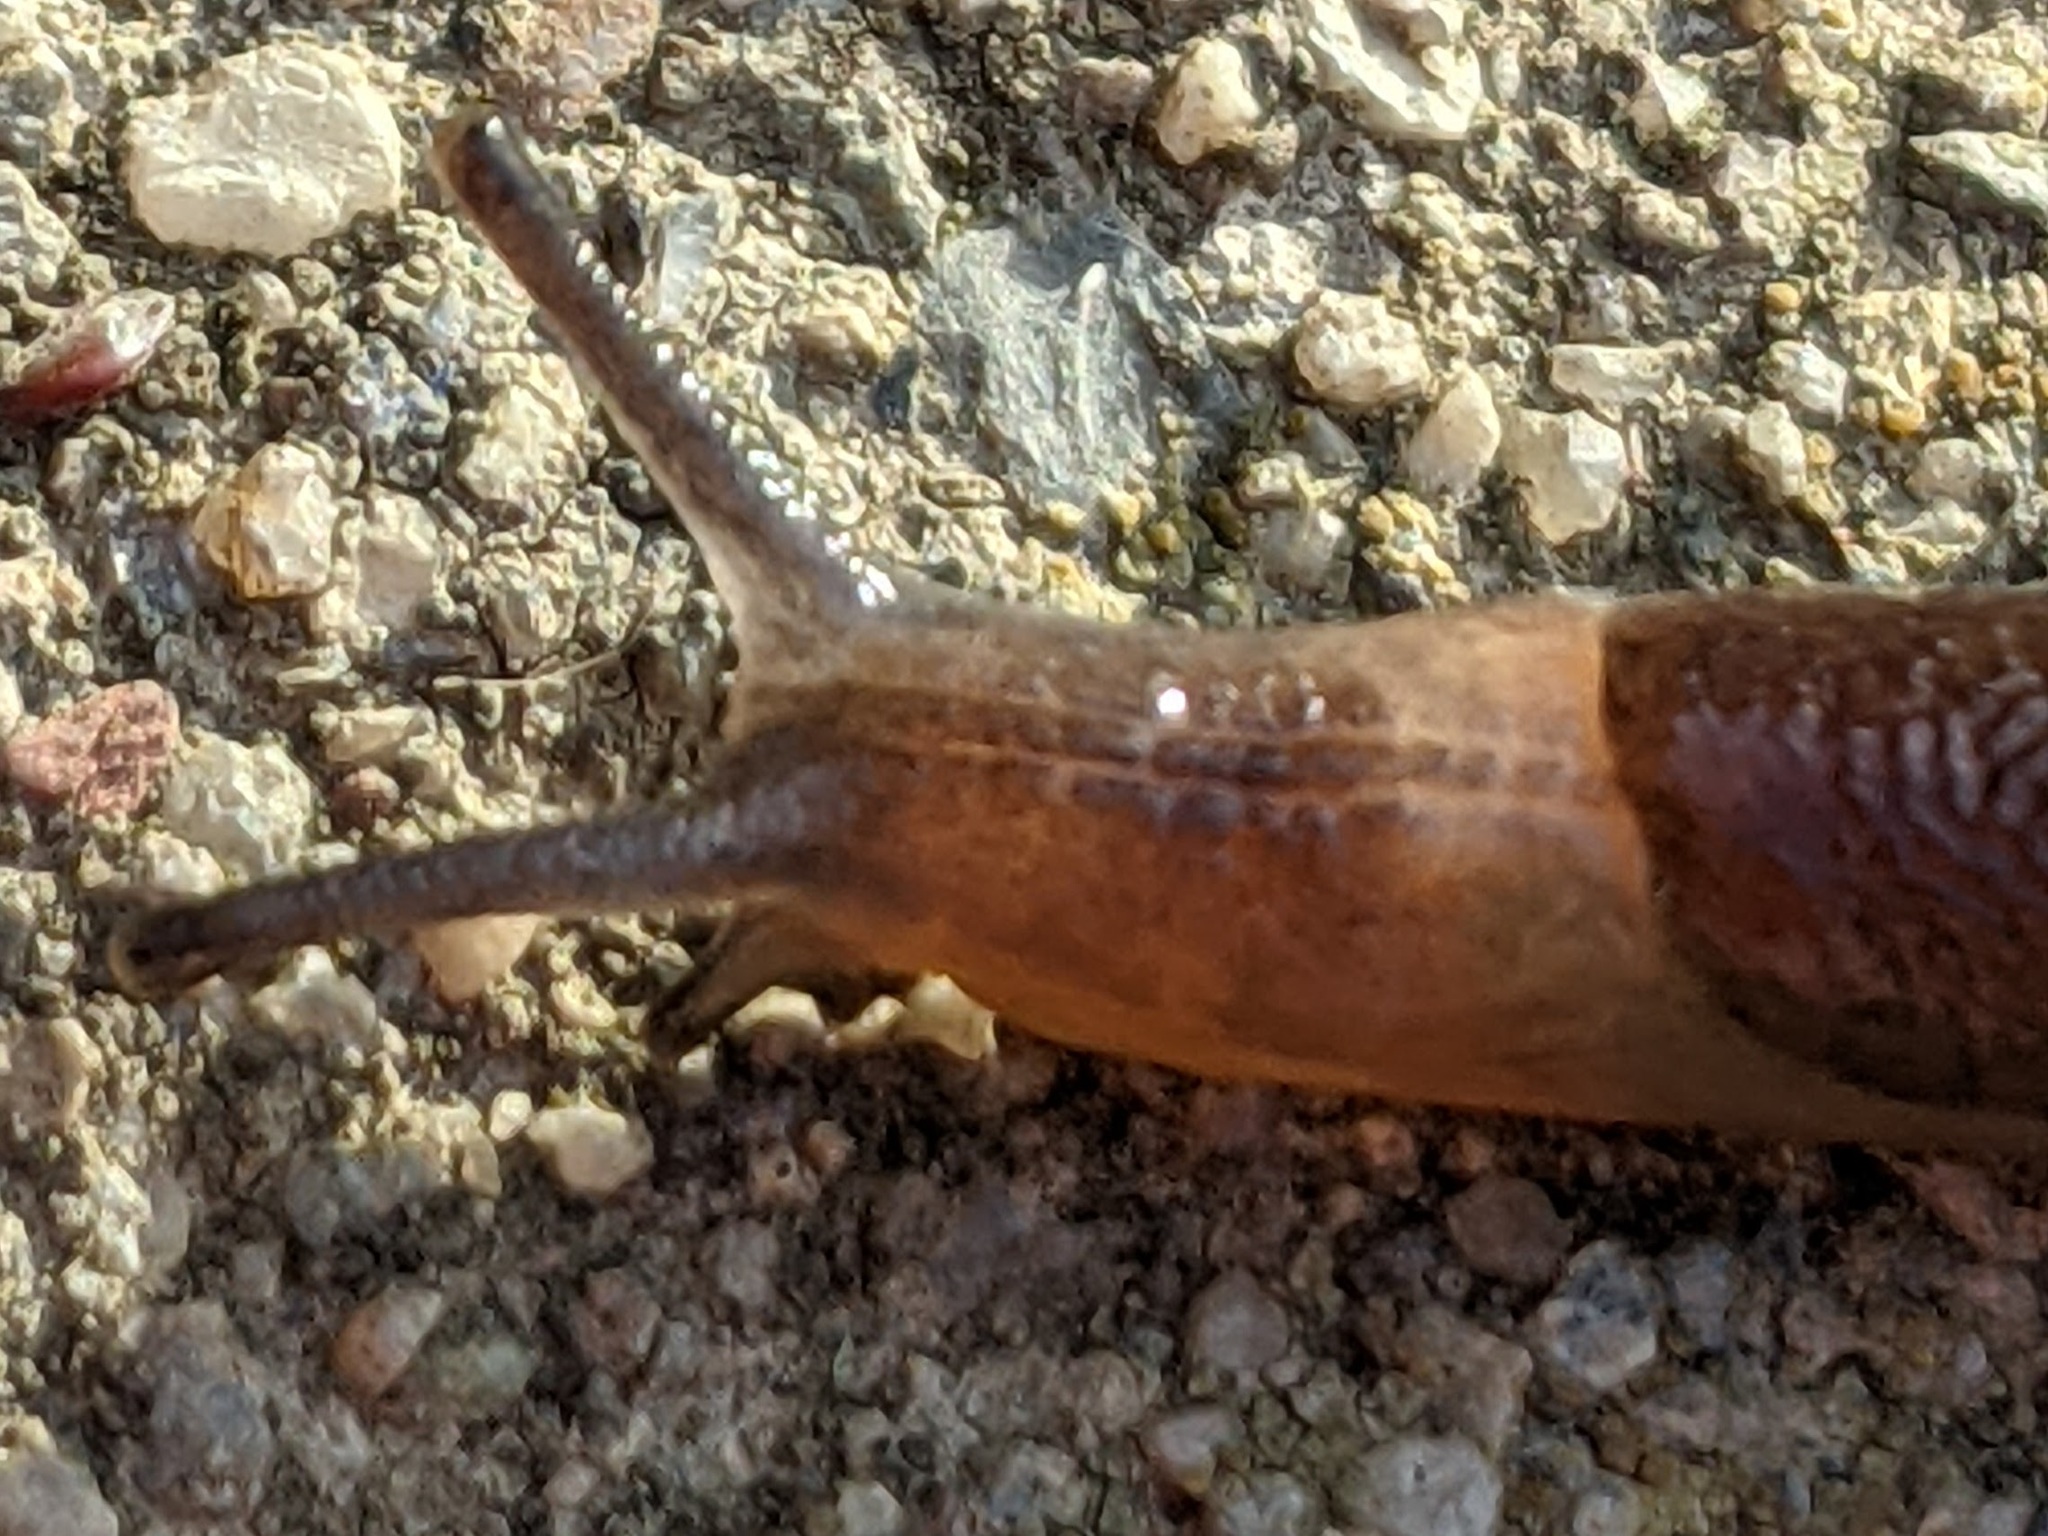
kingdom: Animalia
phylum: Mollusca
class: Gastropoda
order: Stylommatophora
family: Milacidae
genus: Milax
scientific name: Milax gagates
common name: Greenhouse slug
